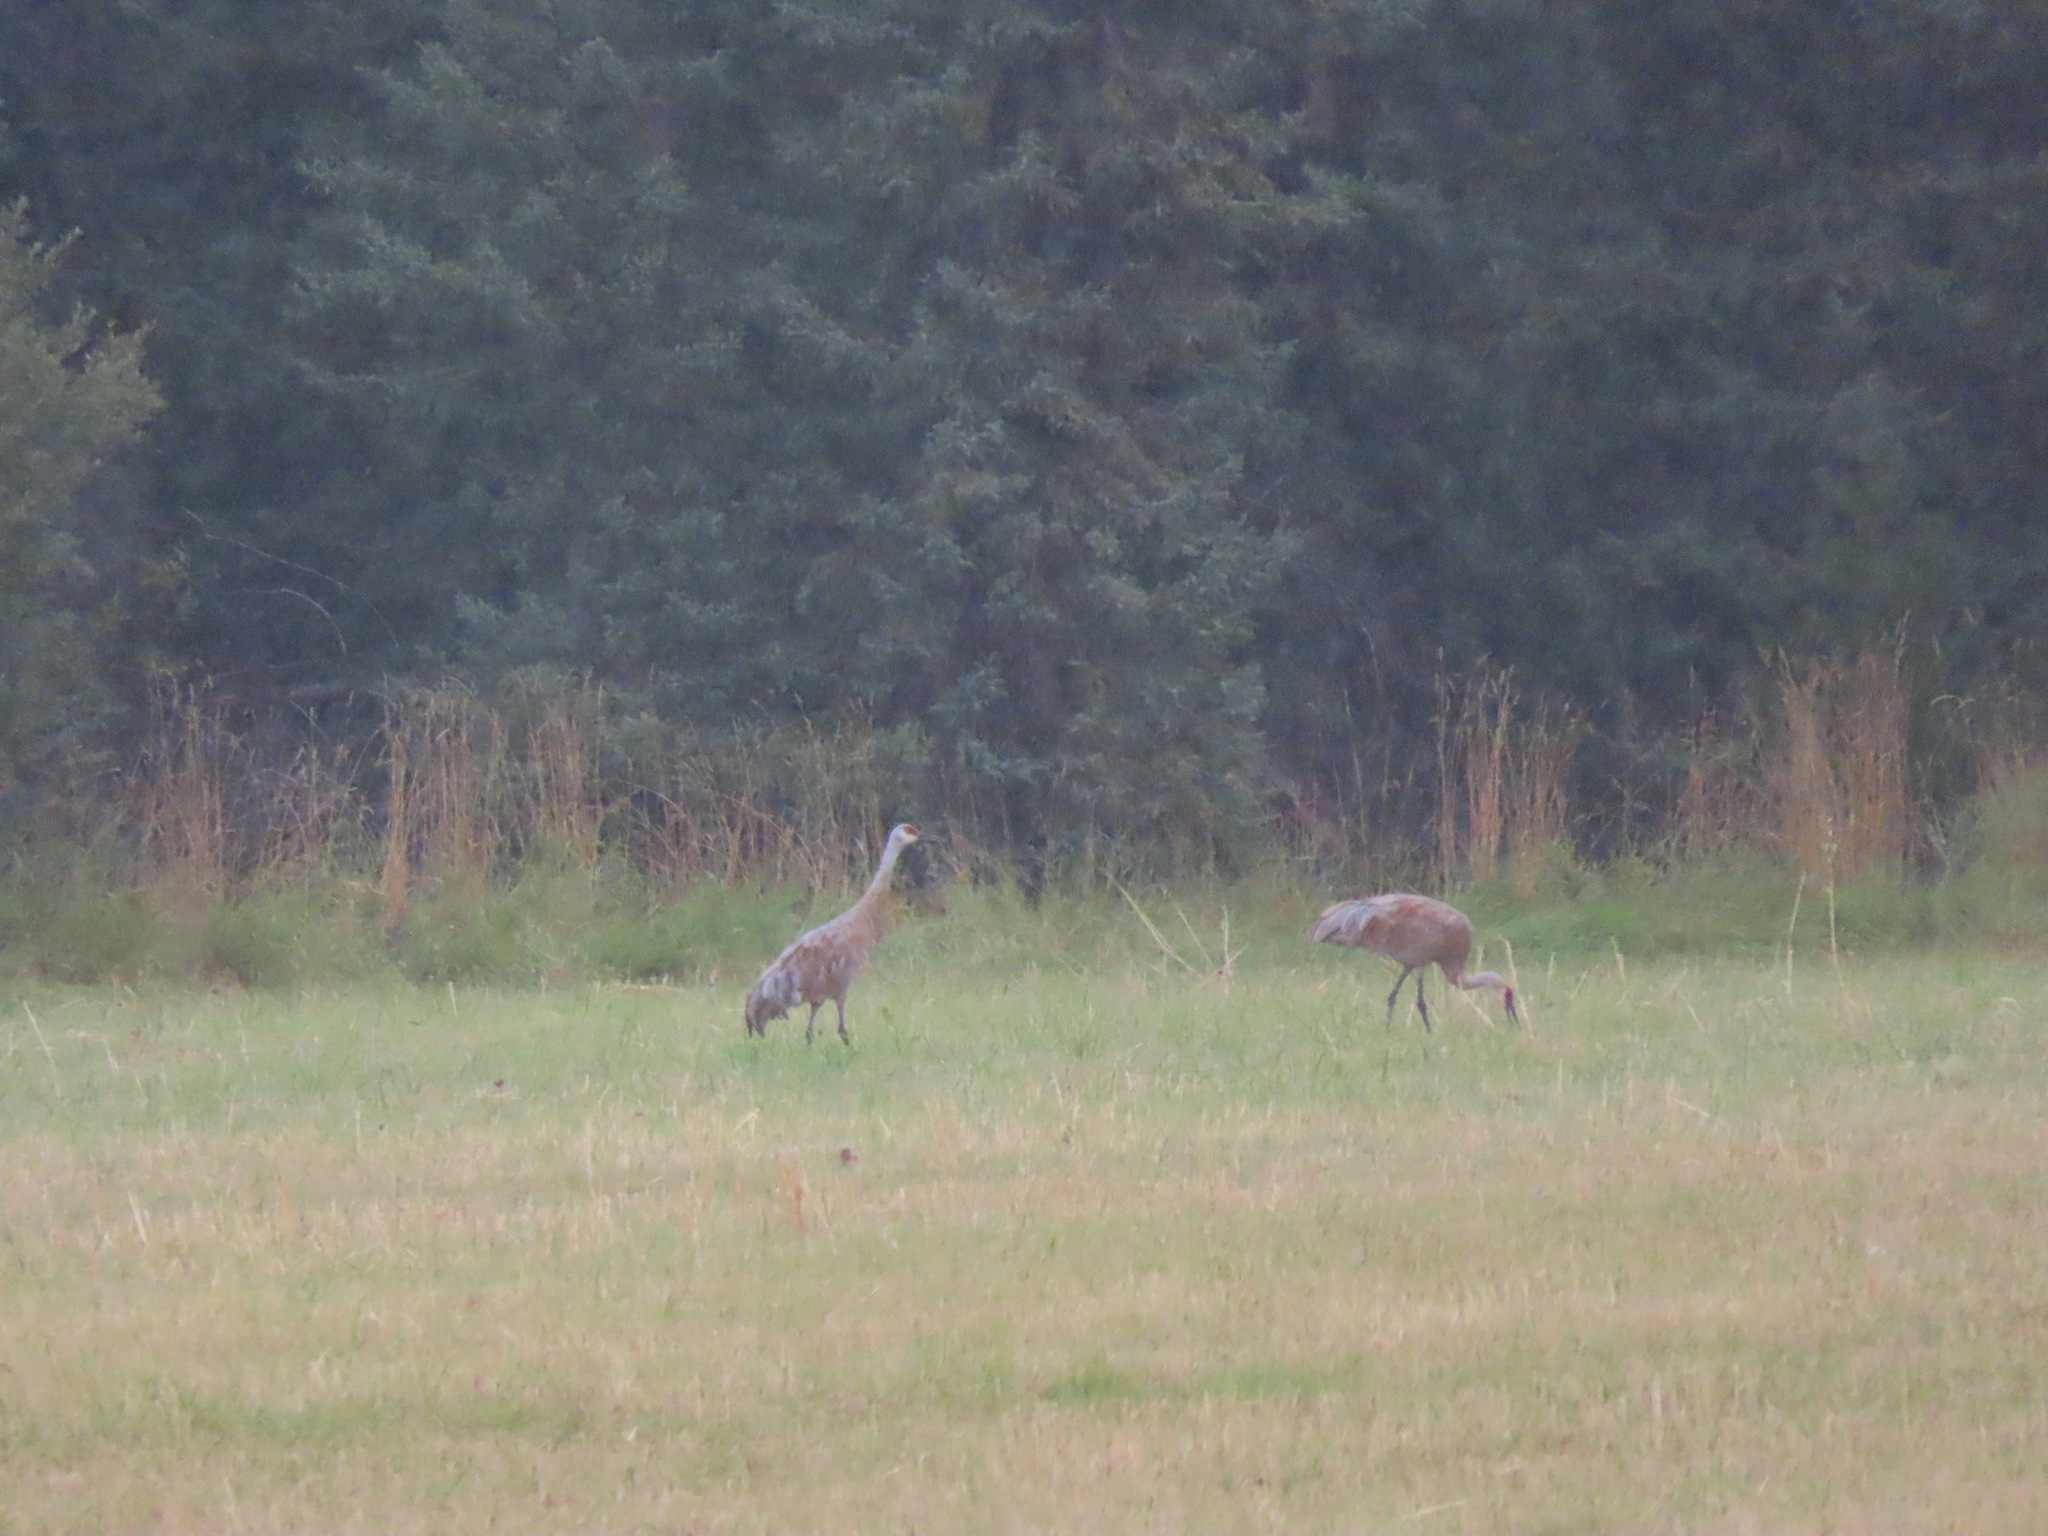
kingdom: Animalia
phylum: Chordata
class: Aves
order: Gruiformes
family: Gruidae
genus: Grus
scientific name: Grus canadensis
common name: Sandhill crane
